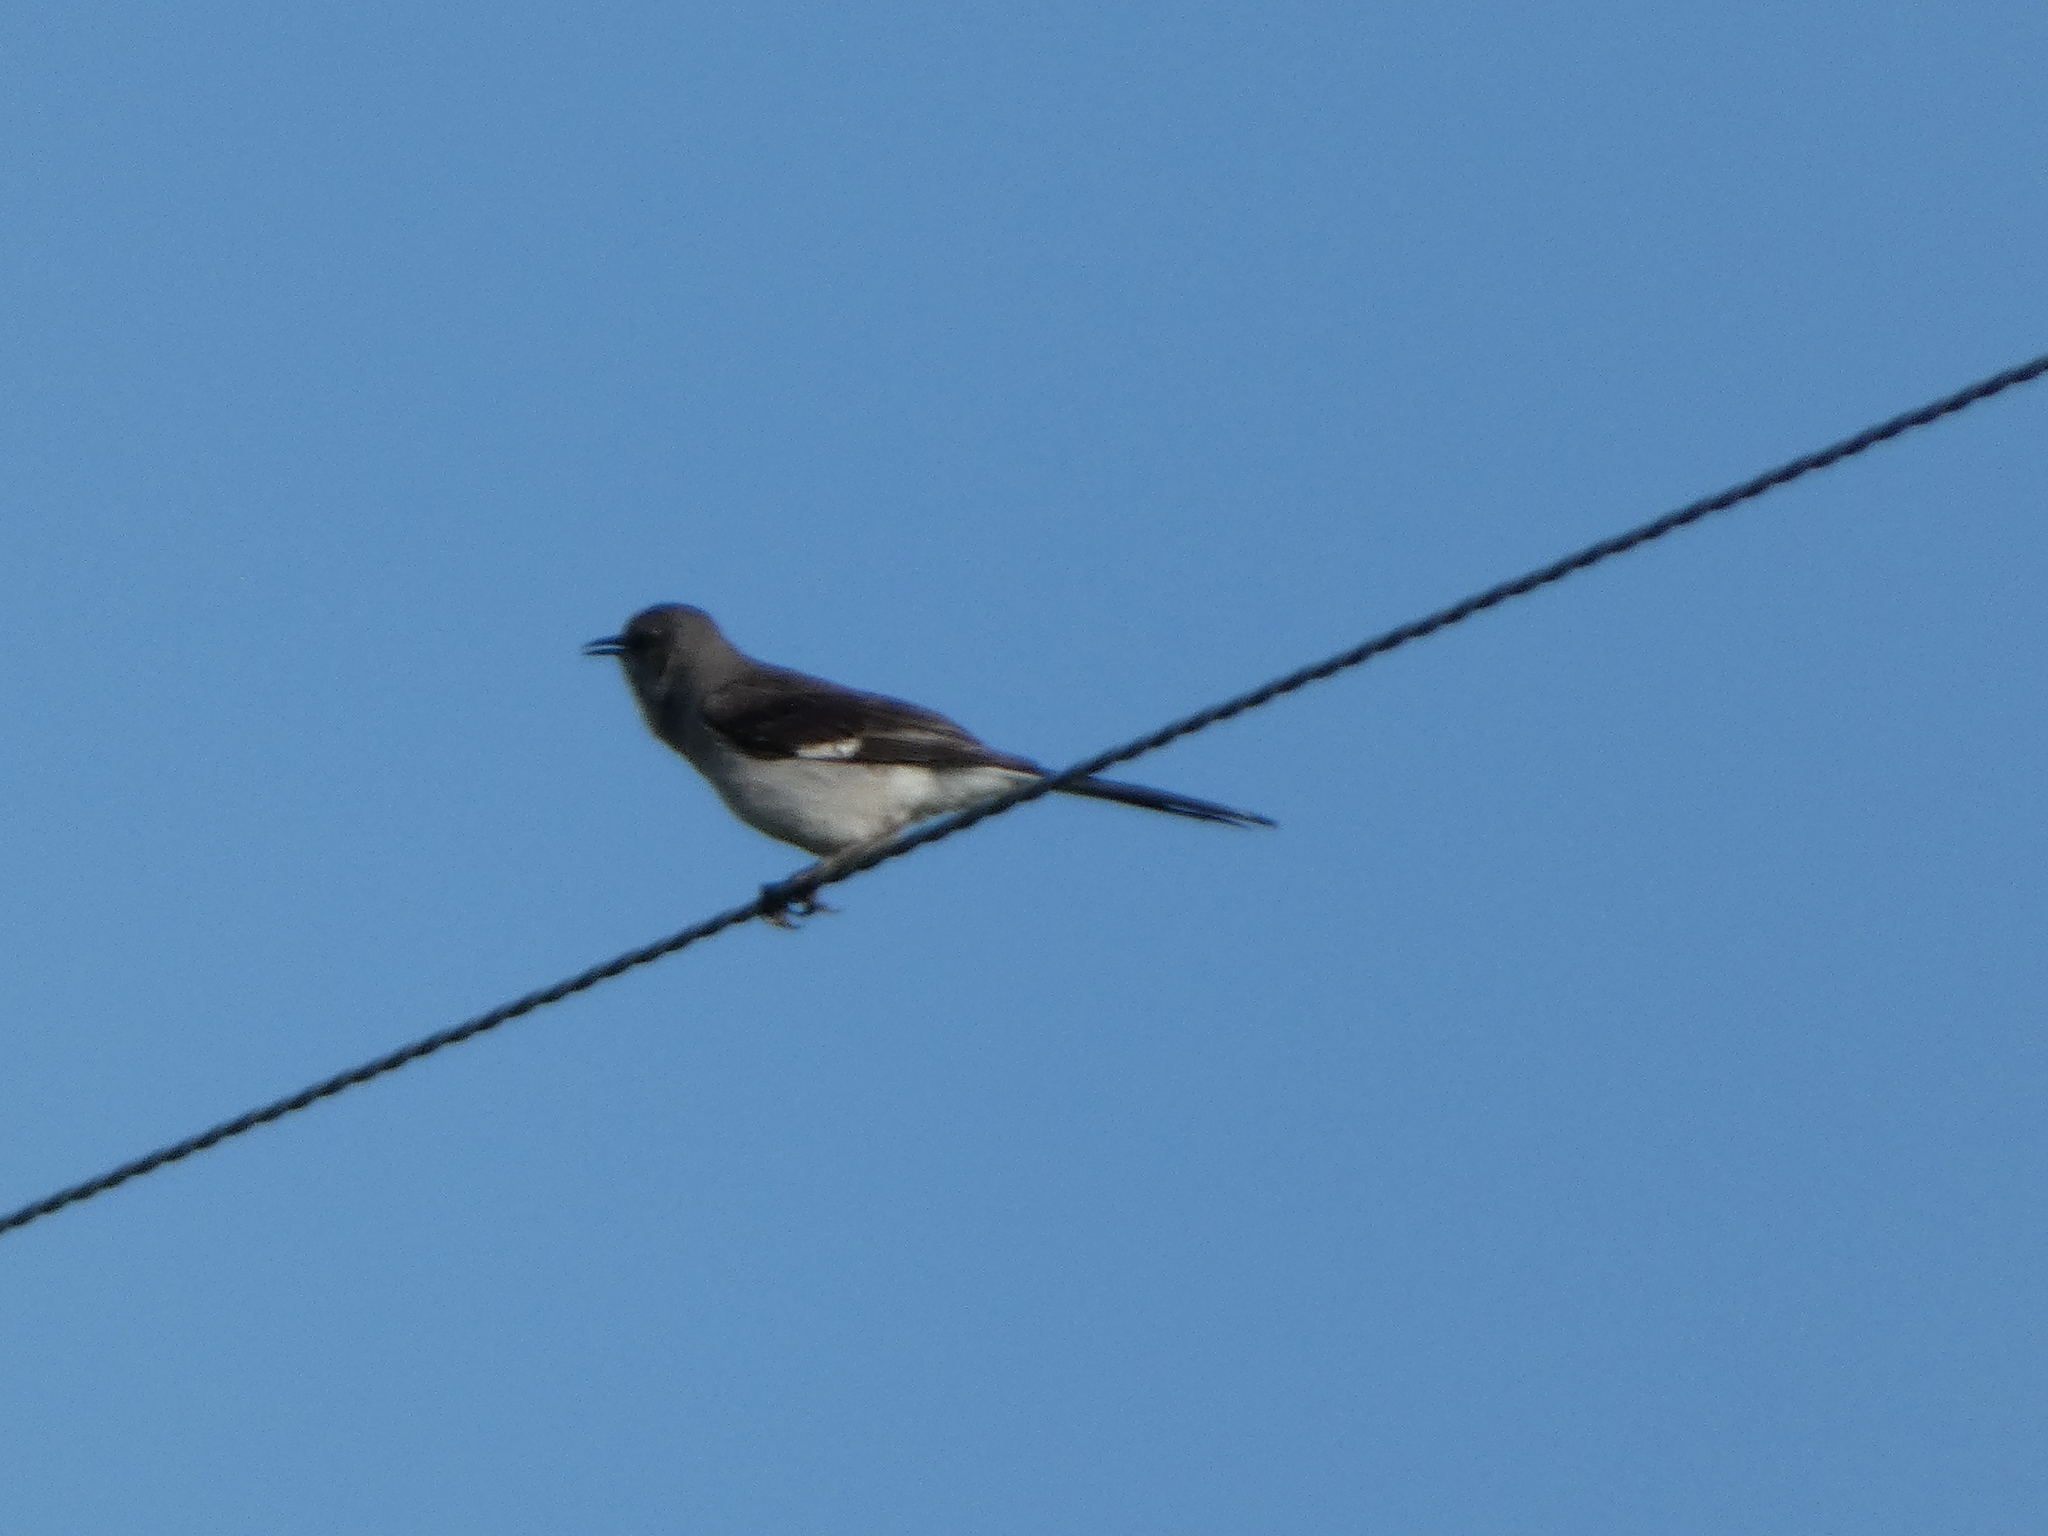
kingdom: Animalia
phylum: Chordata
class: Aves
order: Passeriformes
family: Mimidae
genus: Mimus
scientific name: Mimus polyglottos
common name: Northern mockingbird
